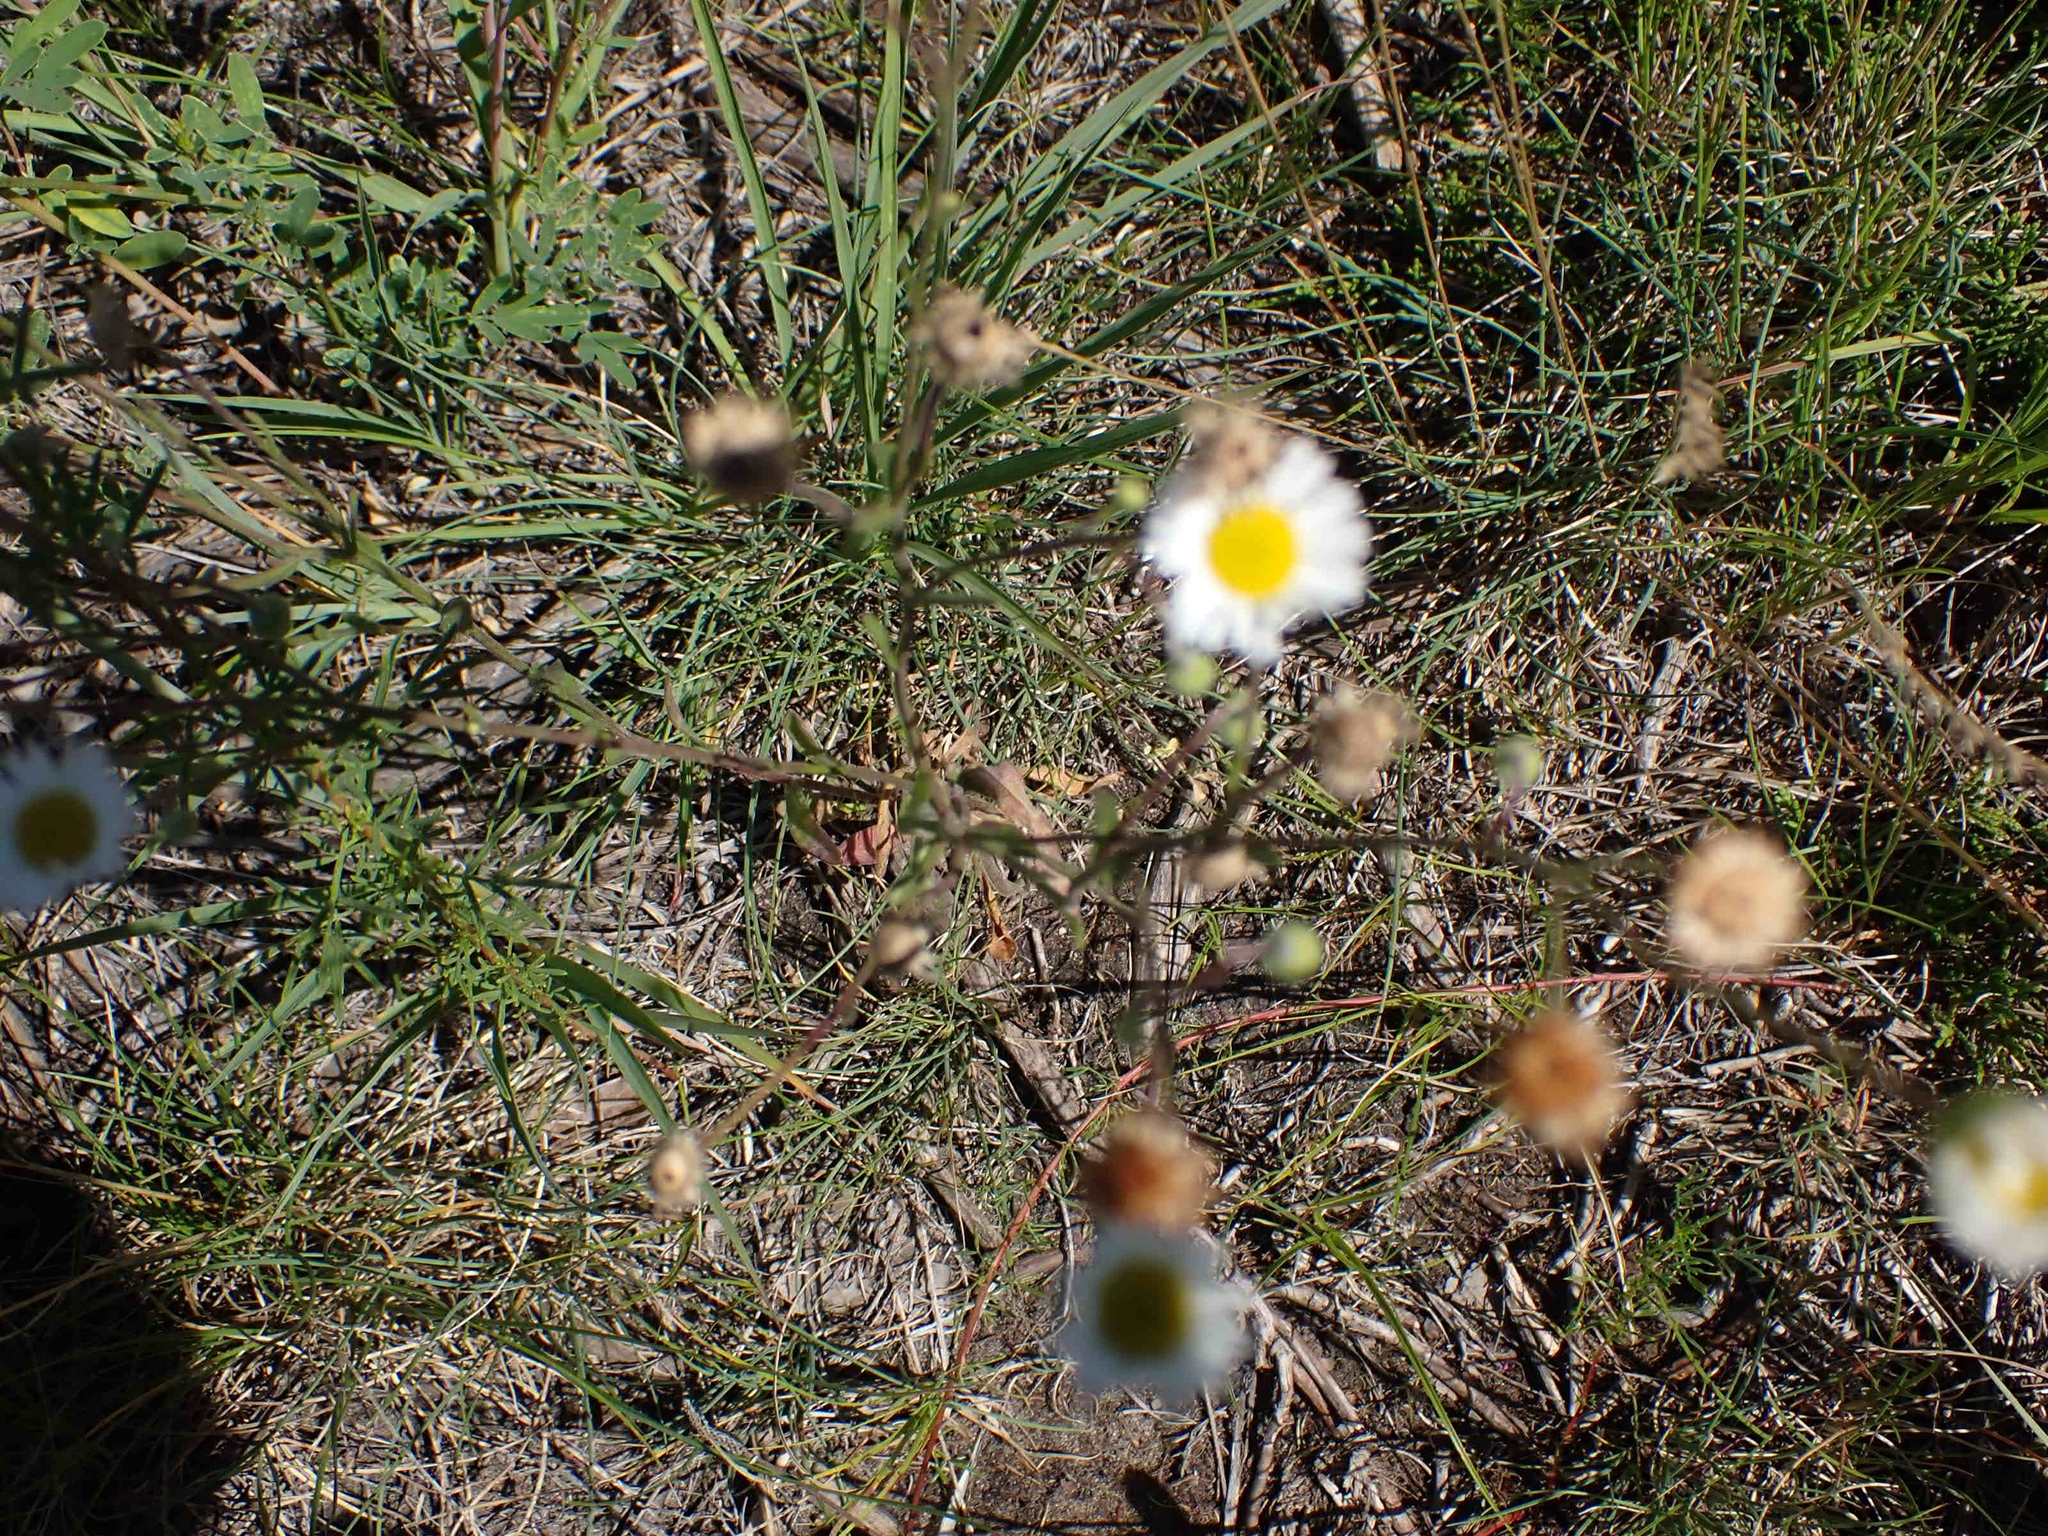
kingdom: Plantae
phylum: Tracheophyta
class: Magnoliopsida
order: Asterales
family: Asteraceae
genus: Erigeron
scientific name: Erigeron strigosus
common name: Common eastern fleabane
